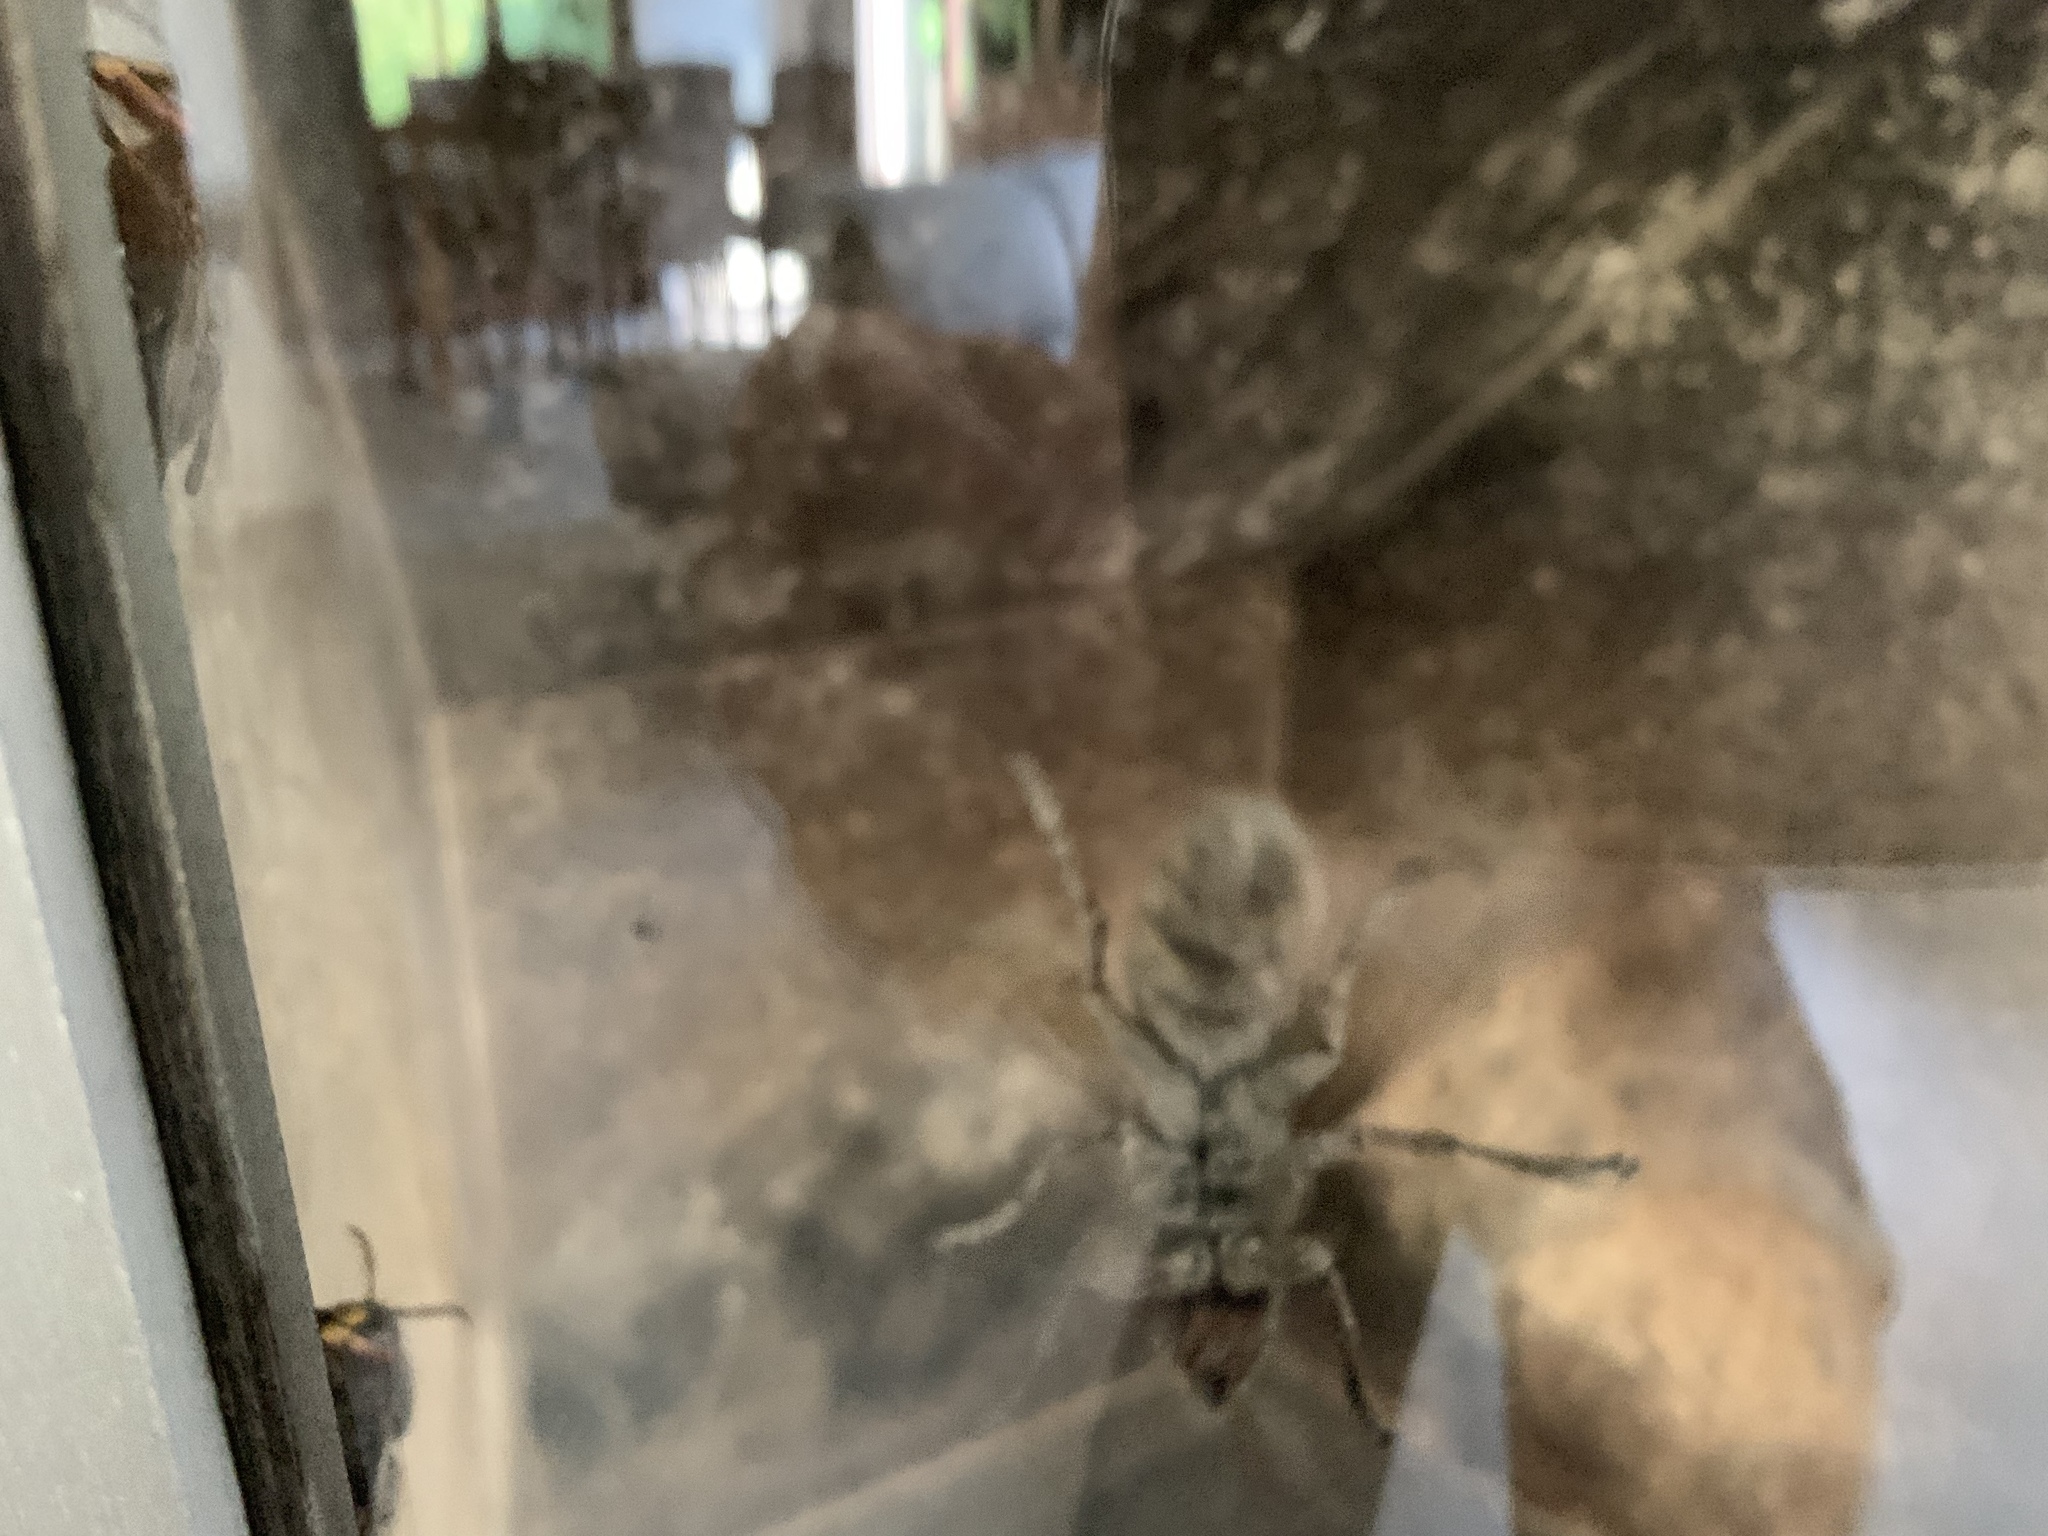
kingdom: Animalia
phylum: Arthropoda
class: Insecta
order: Hymenoptera
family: Vespidae
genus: Vespa
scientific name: Vespa crabro
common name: Hornet
